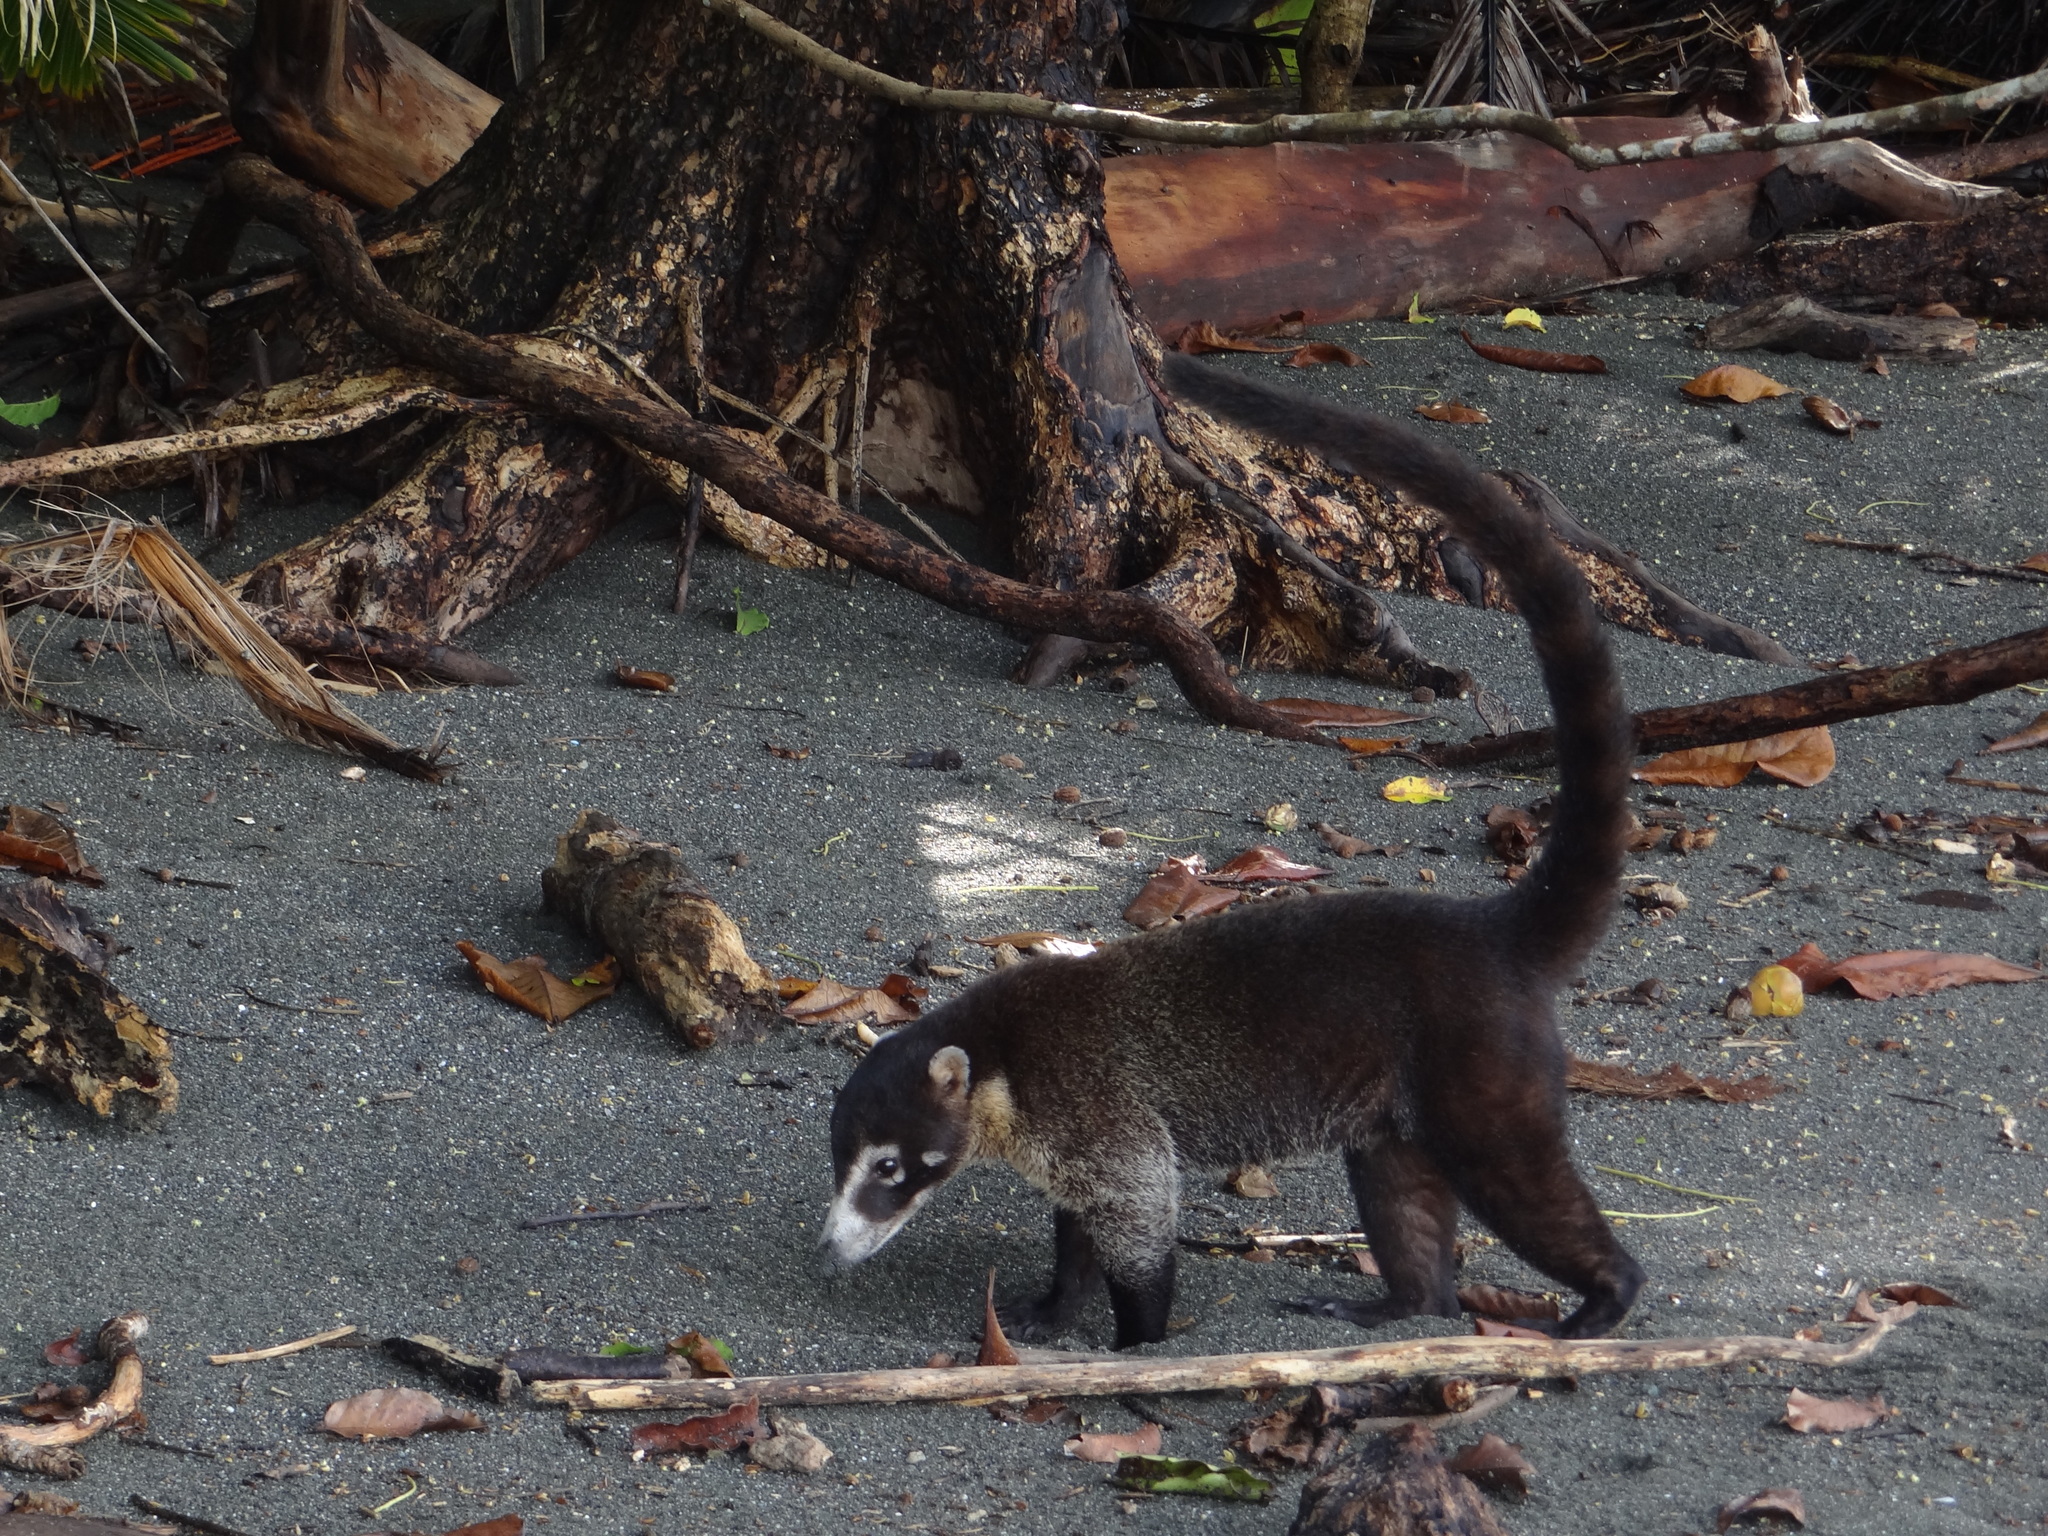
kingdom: Animalia
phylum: Chordata
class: Mammalia
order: Carnivora
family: Procyonidae
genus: Nasua
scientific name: Nasua narica
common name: White-nosed coati
